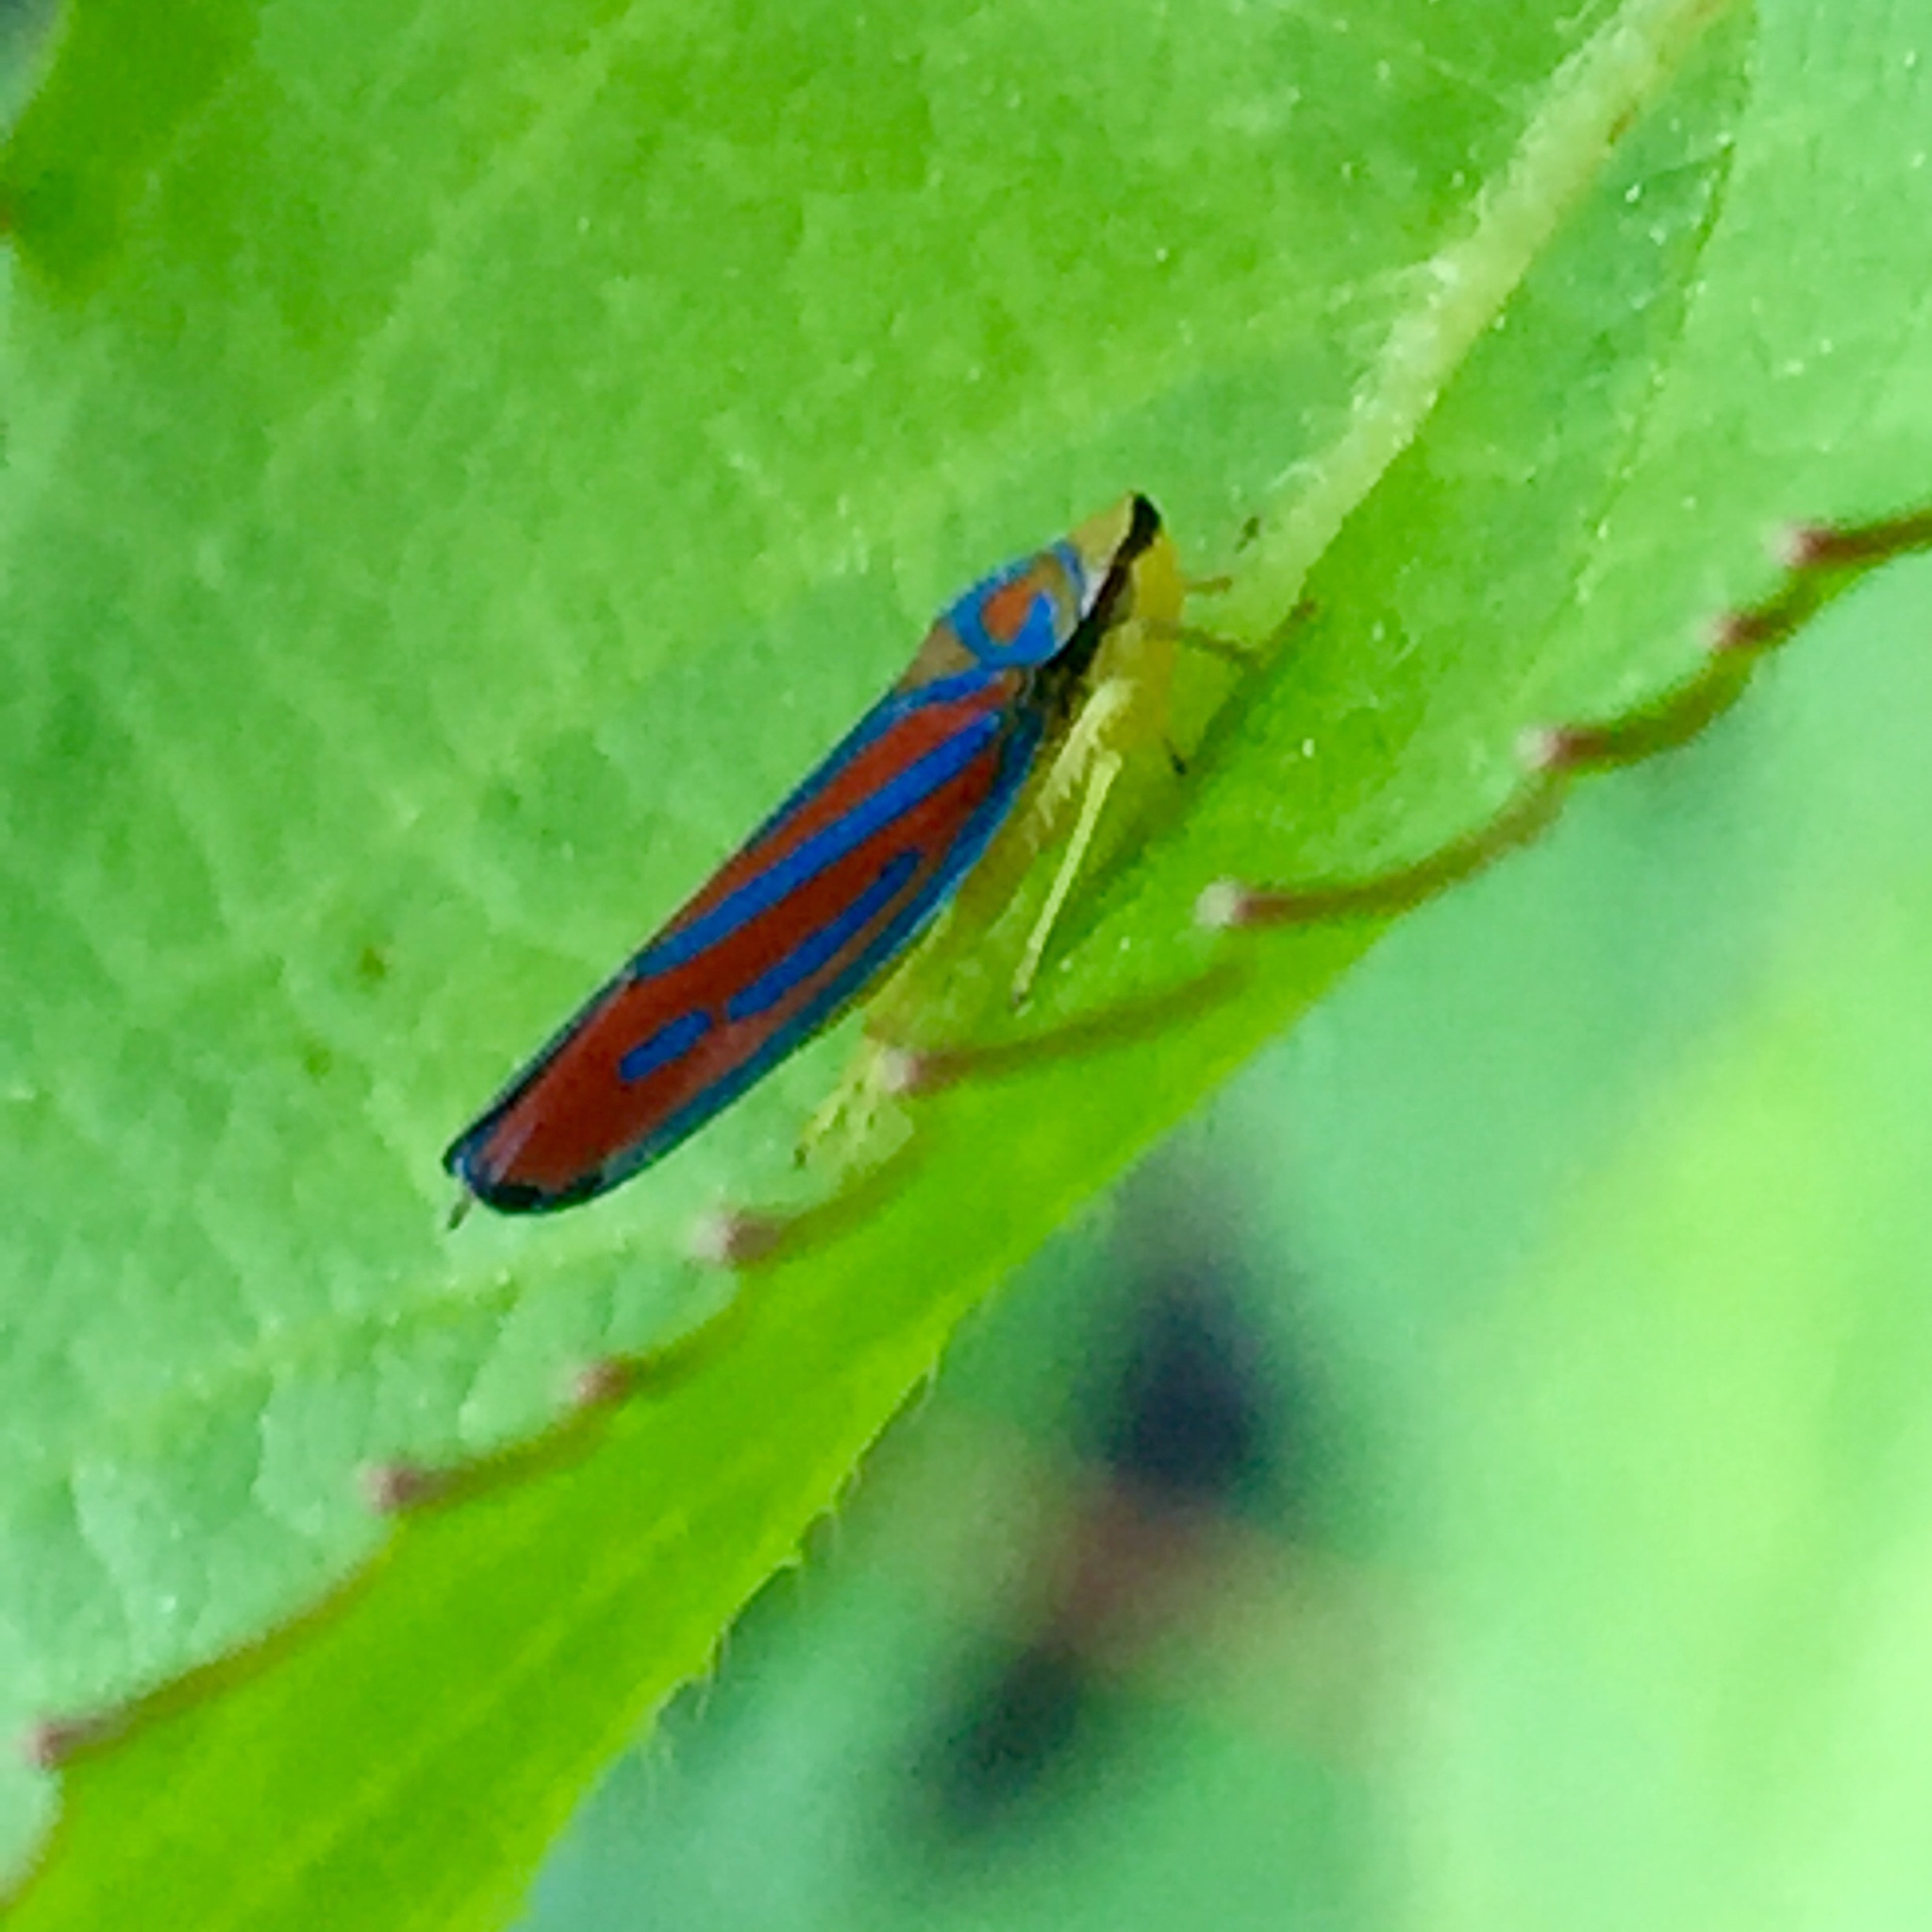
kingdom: Animalia
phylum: Arthropoda
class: Insecta
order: Hemiptera
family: Cicadellidae
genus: Graphocephala
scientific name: Graphocephala coccinea
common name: Candy-striped leafhopper
